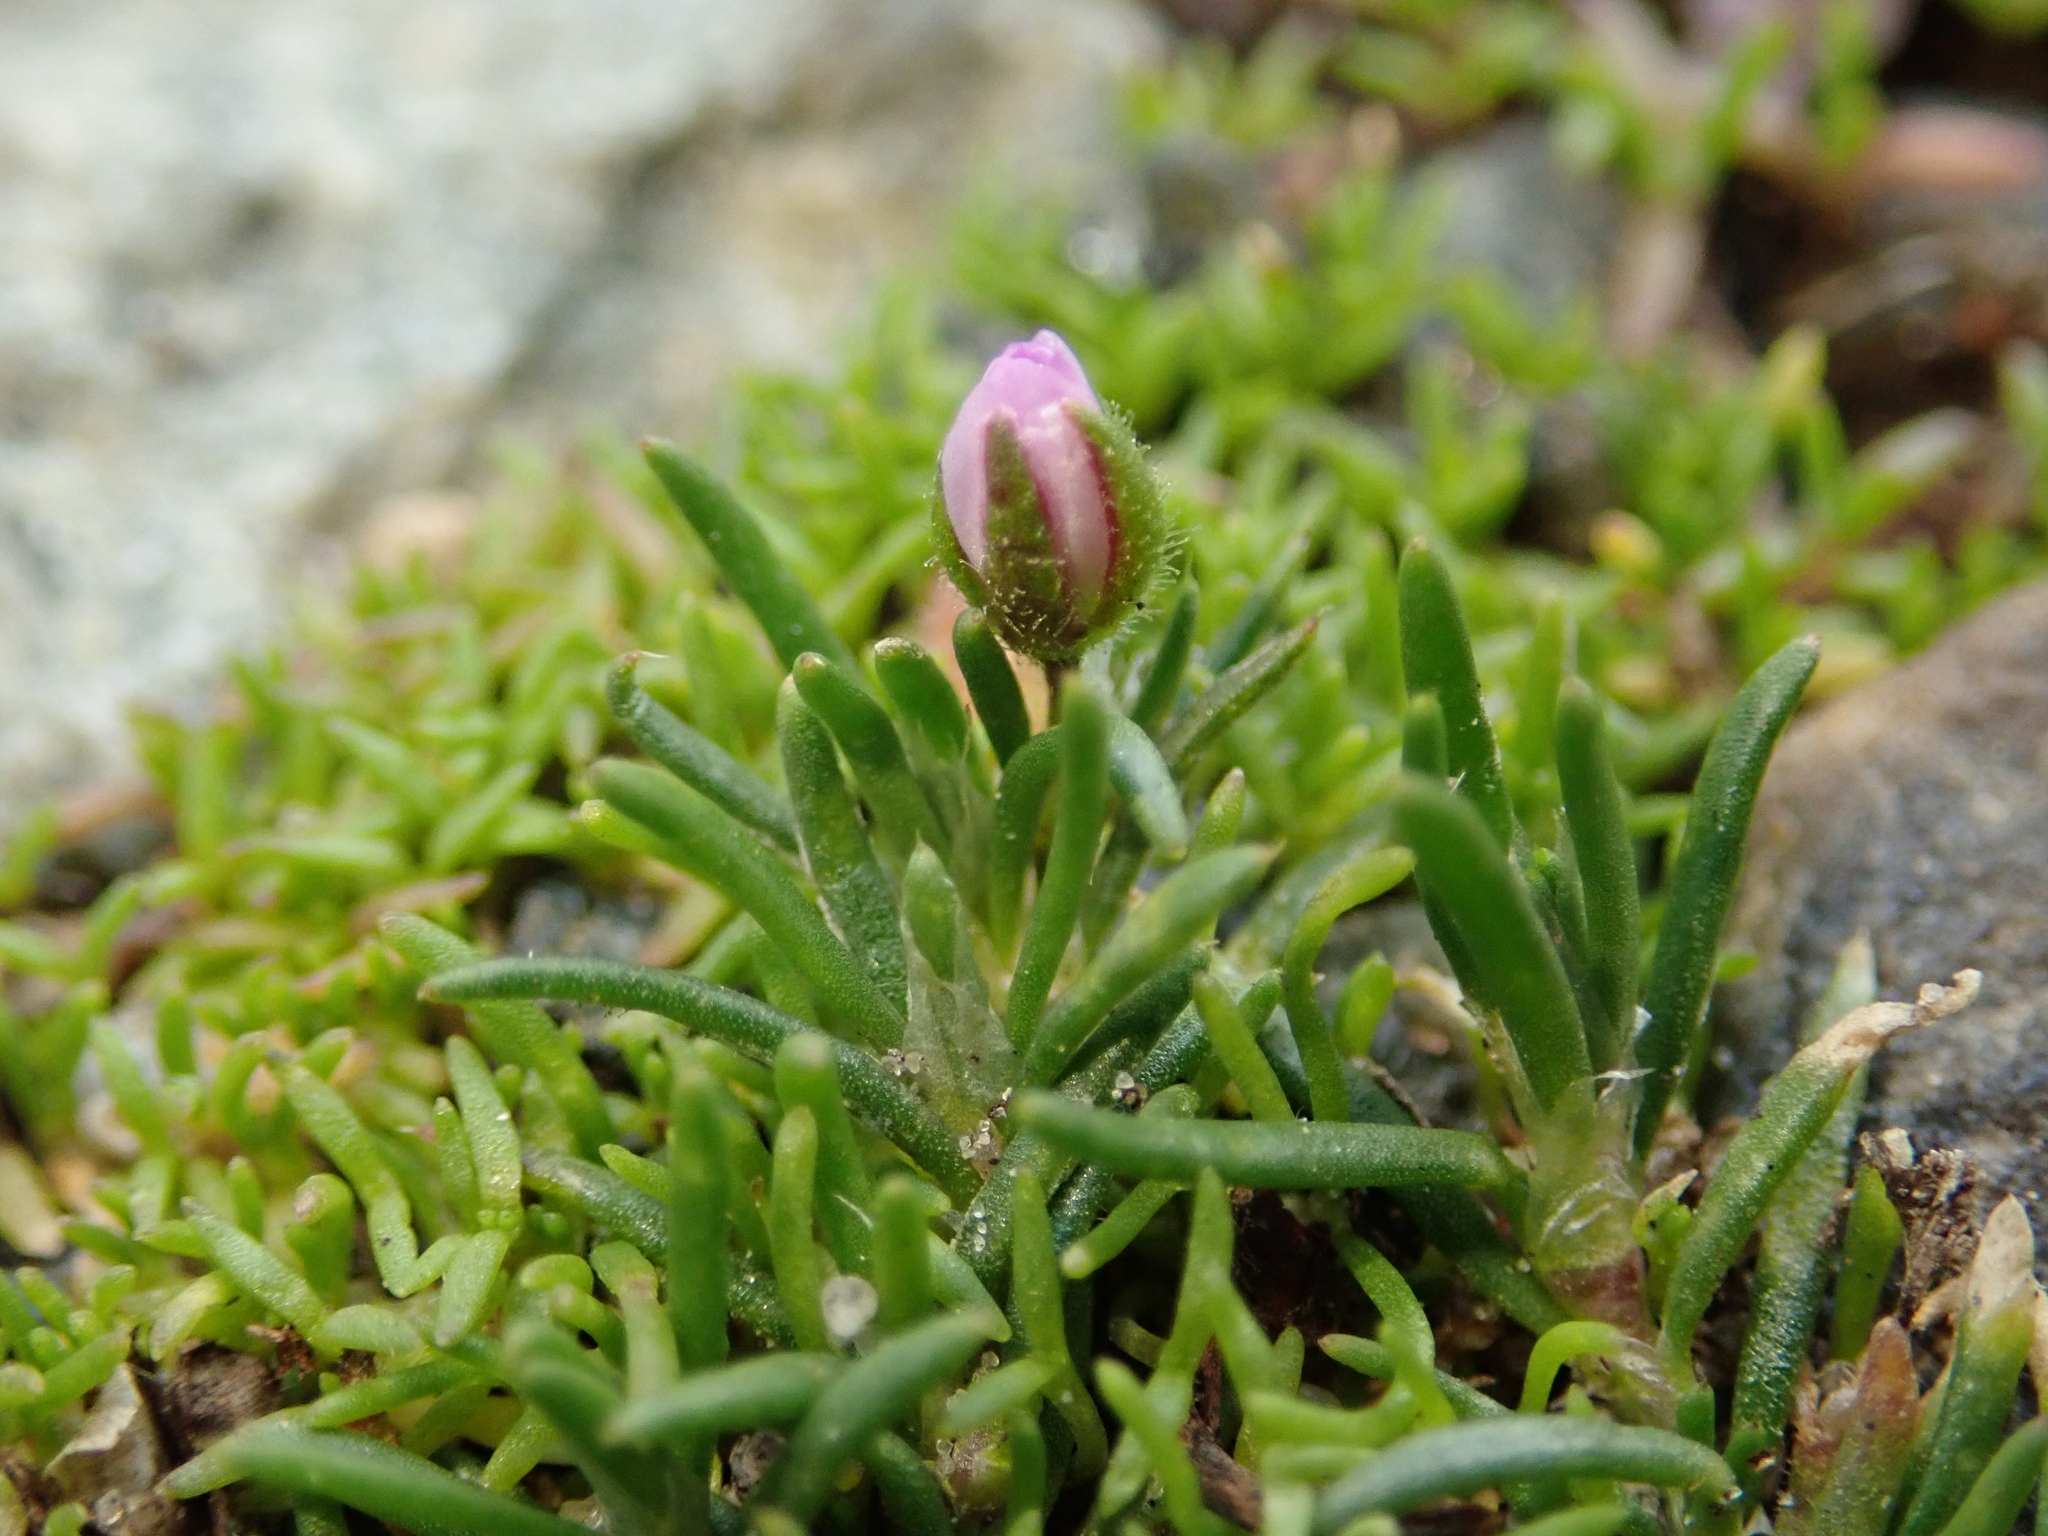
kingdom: Plantae
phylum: Tracheophyta
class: Magnoliopsida
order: Caryophyllales
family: Caryophyllaceae
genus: Spergularia
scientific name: Spergularia rubra
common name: Red sand-spurrey
